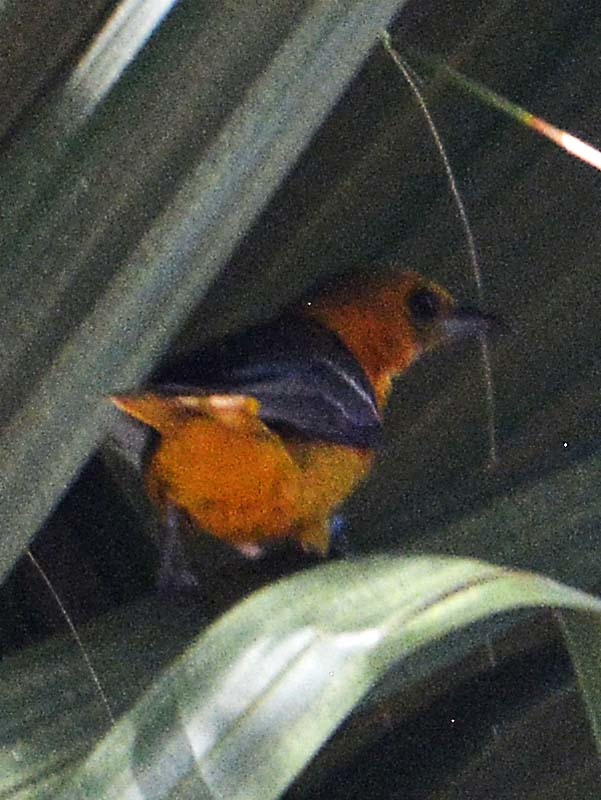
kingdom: Animalia
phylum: Chordata
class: Aves
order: Passeriformes
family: Icteridae
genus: Icterus
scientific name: Icterus cucullatus
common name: Hooded oriole
